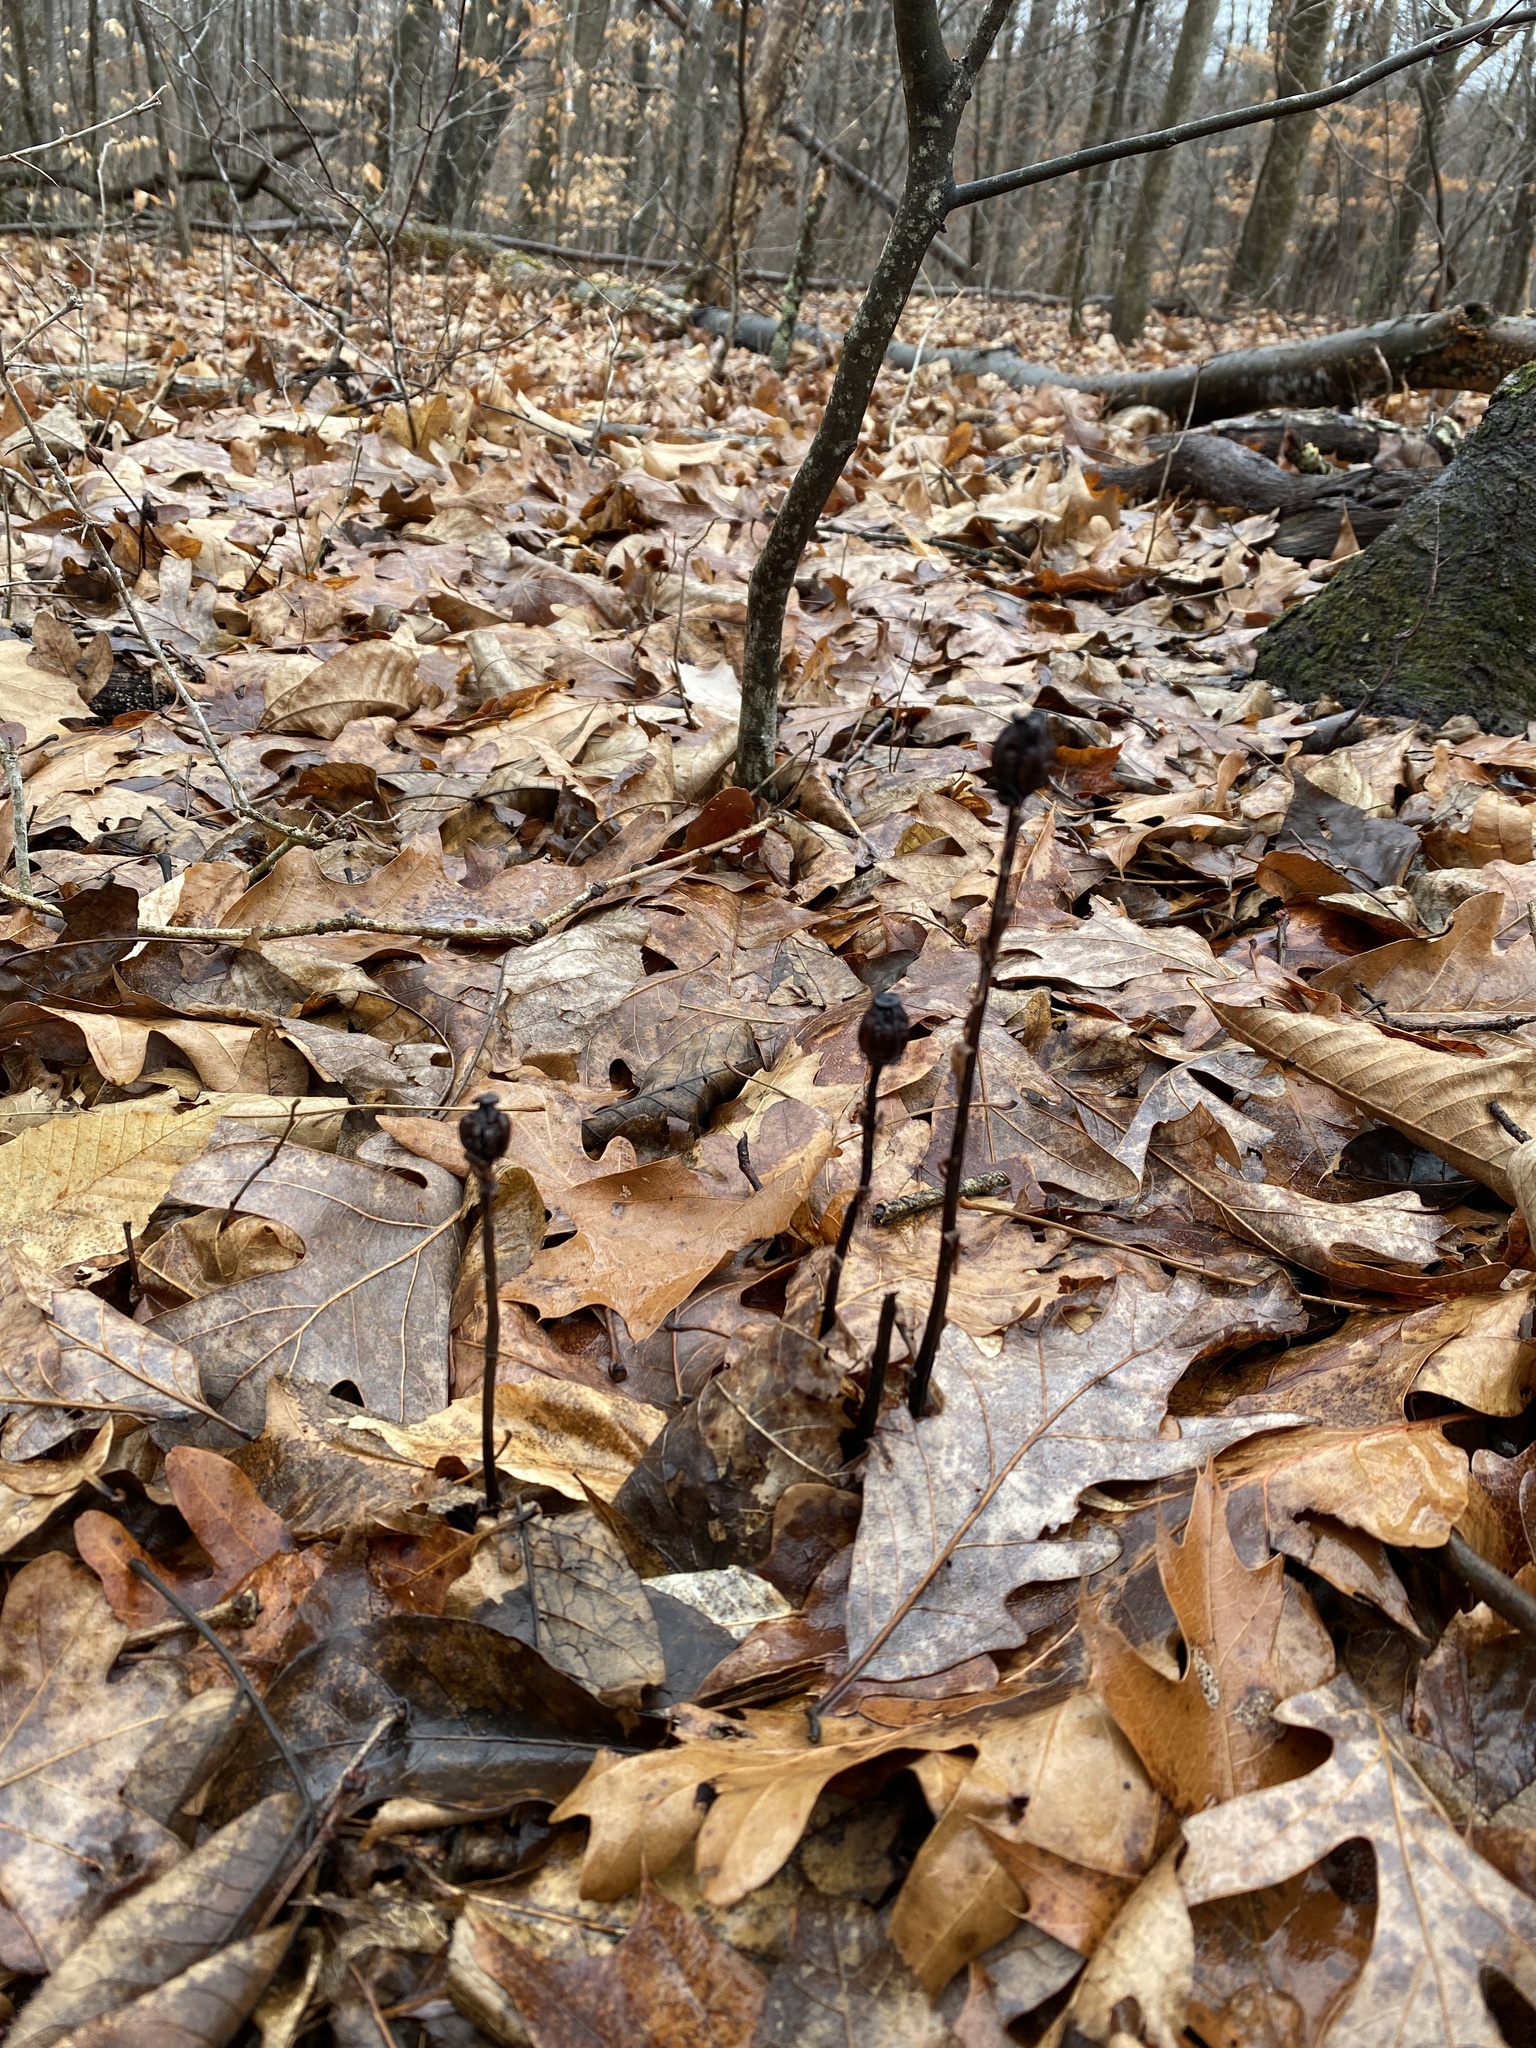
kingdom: Plantae
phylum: Tracheophyta
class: Magnoliopsida
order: Ericales
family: Ericaceae
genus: Monotropa
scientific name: Monotropa uniflora
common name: Convulsion root
